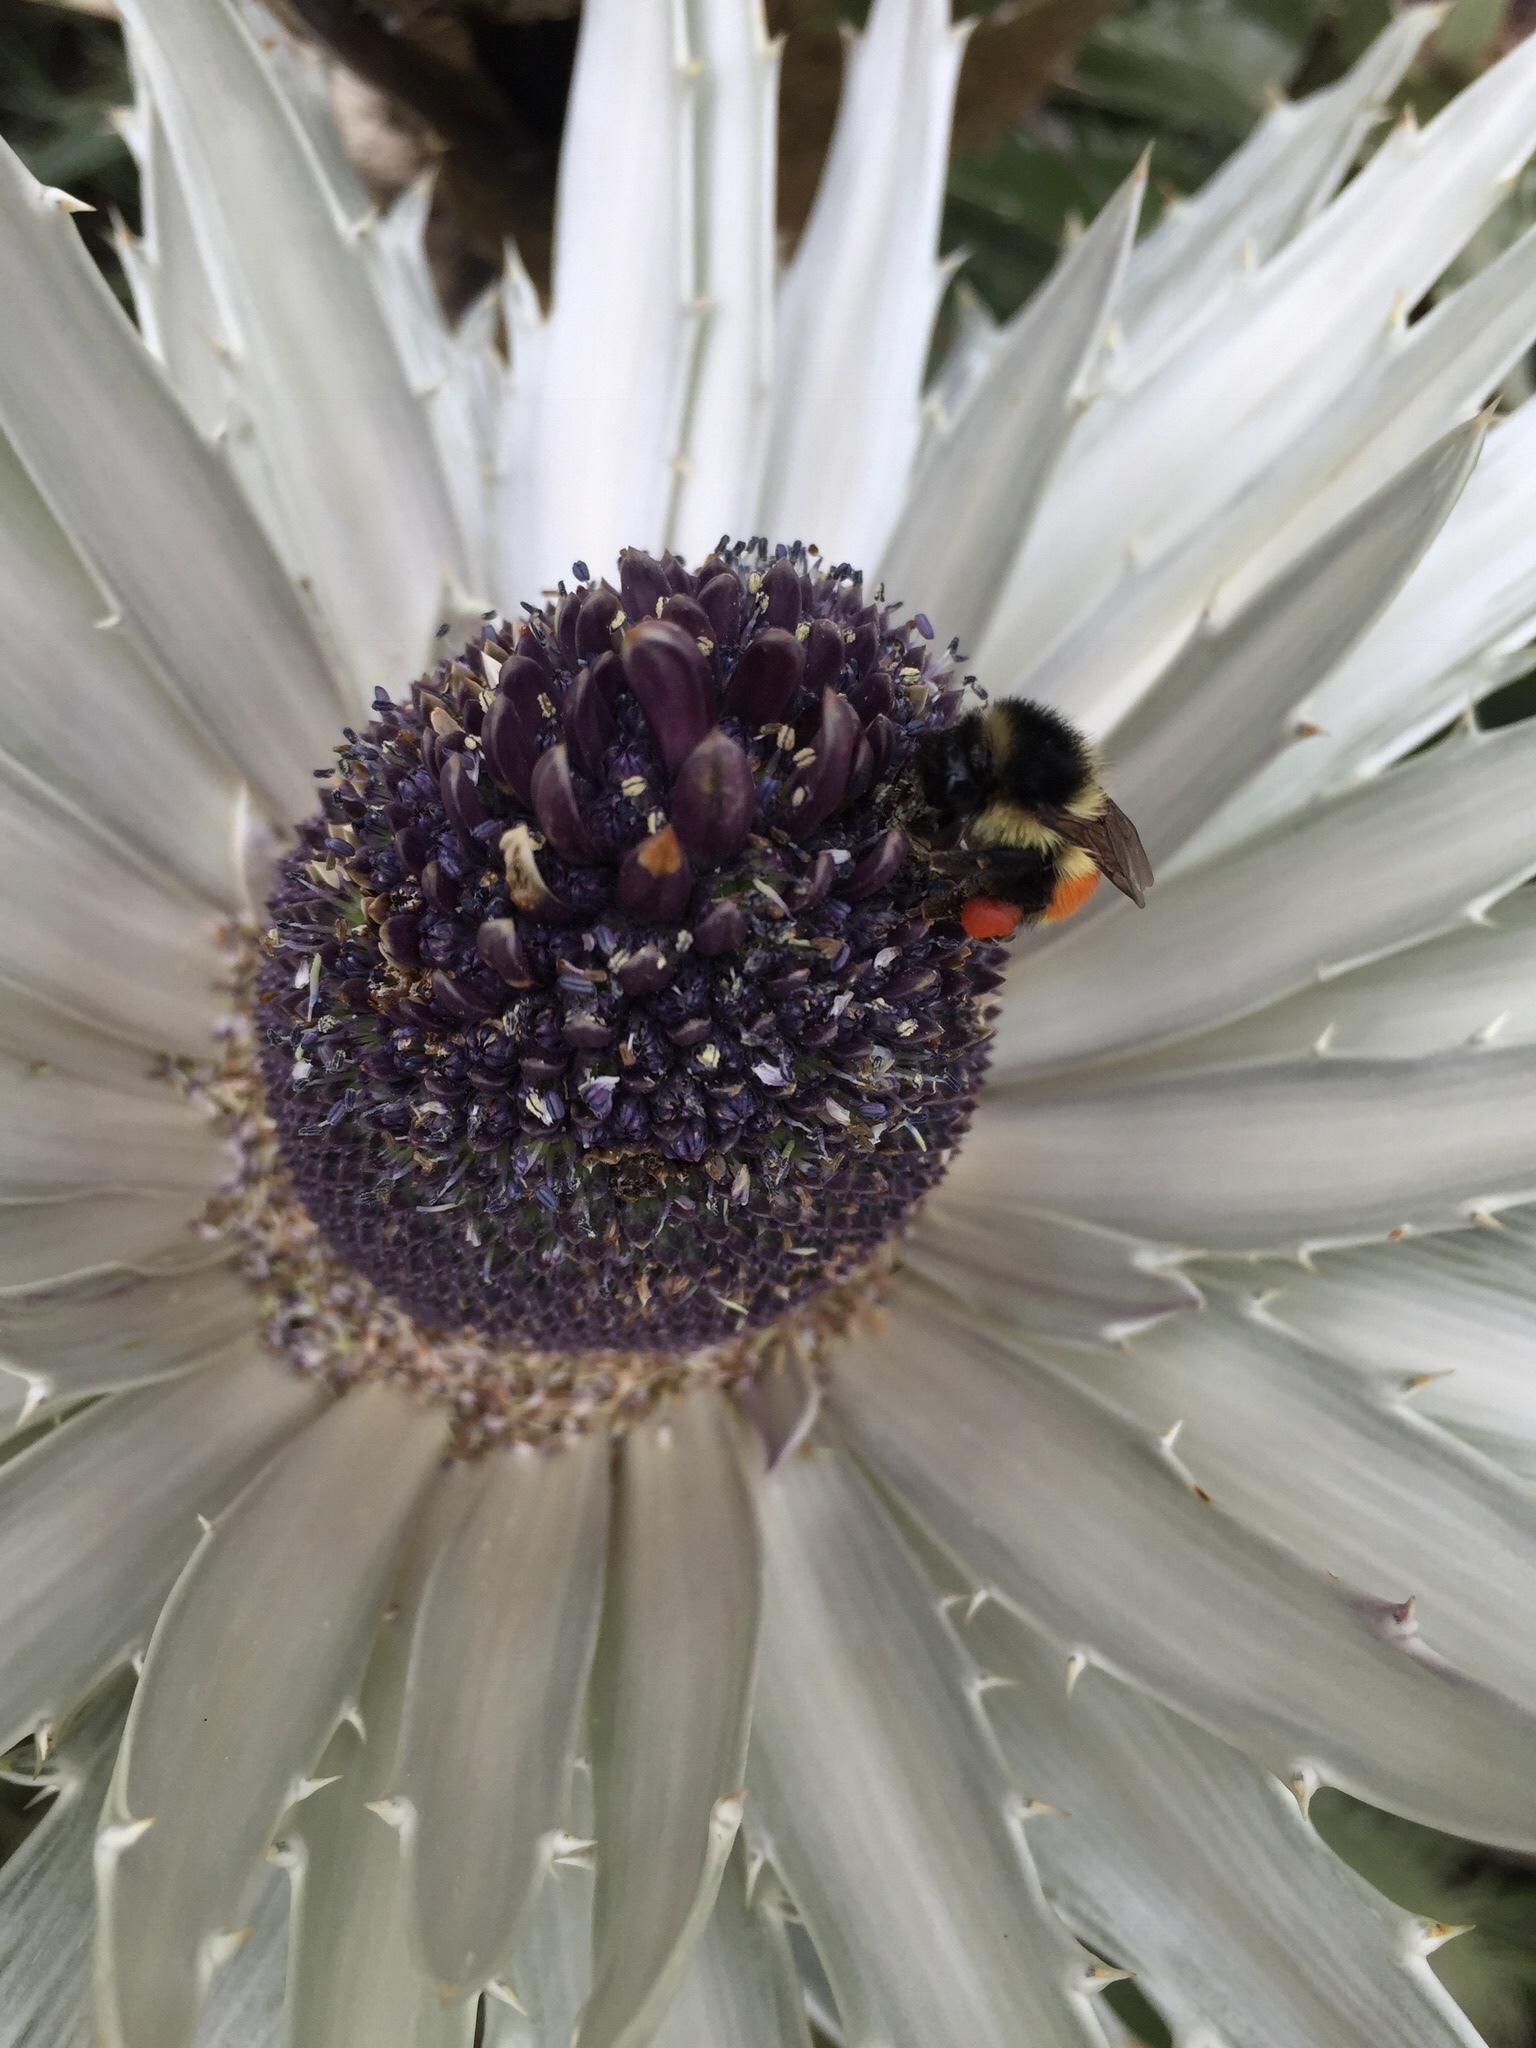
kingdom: Animalia
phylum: Arthropoda
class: Insecta
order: Hymenoptera
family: Apidae
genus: Bombus
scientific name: Bombus huntii
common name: Hunt bumble bee
